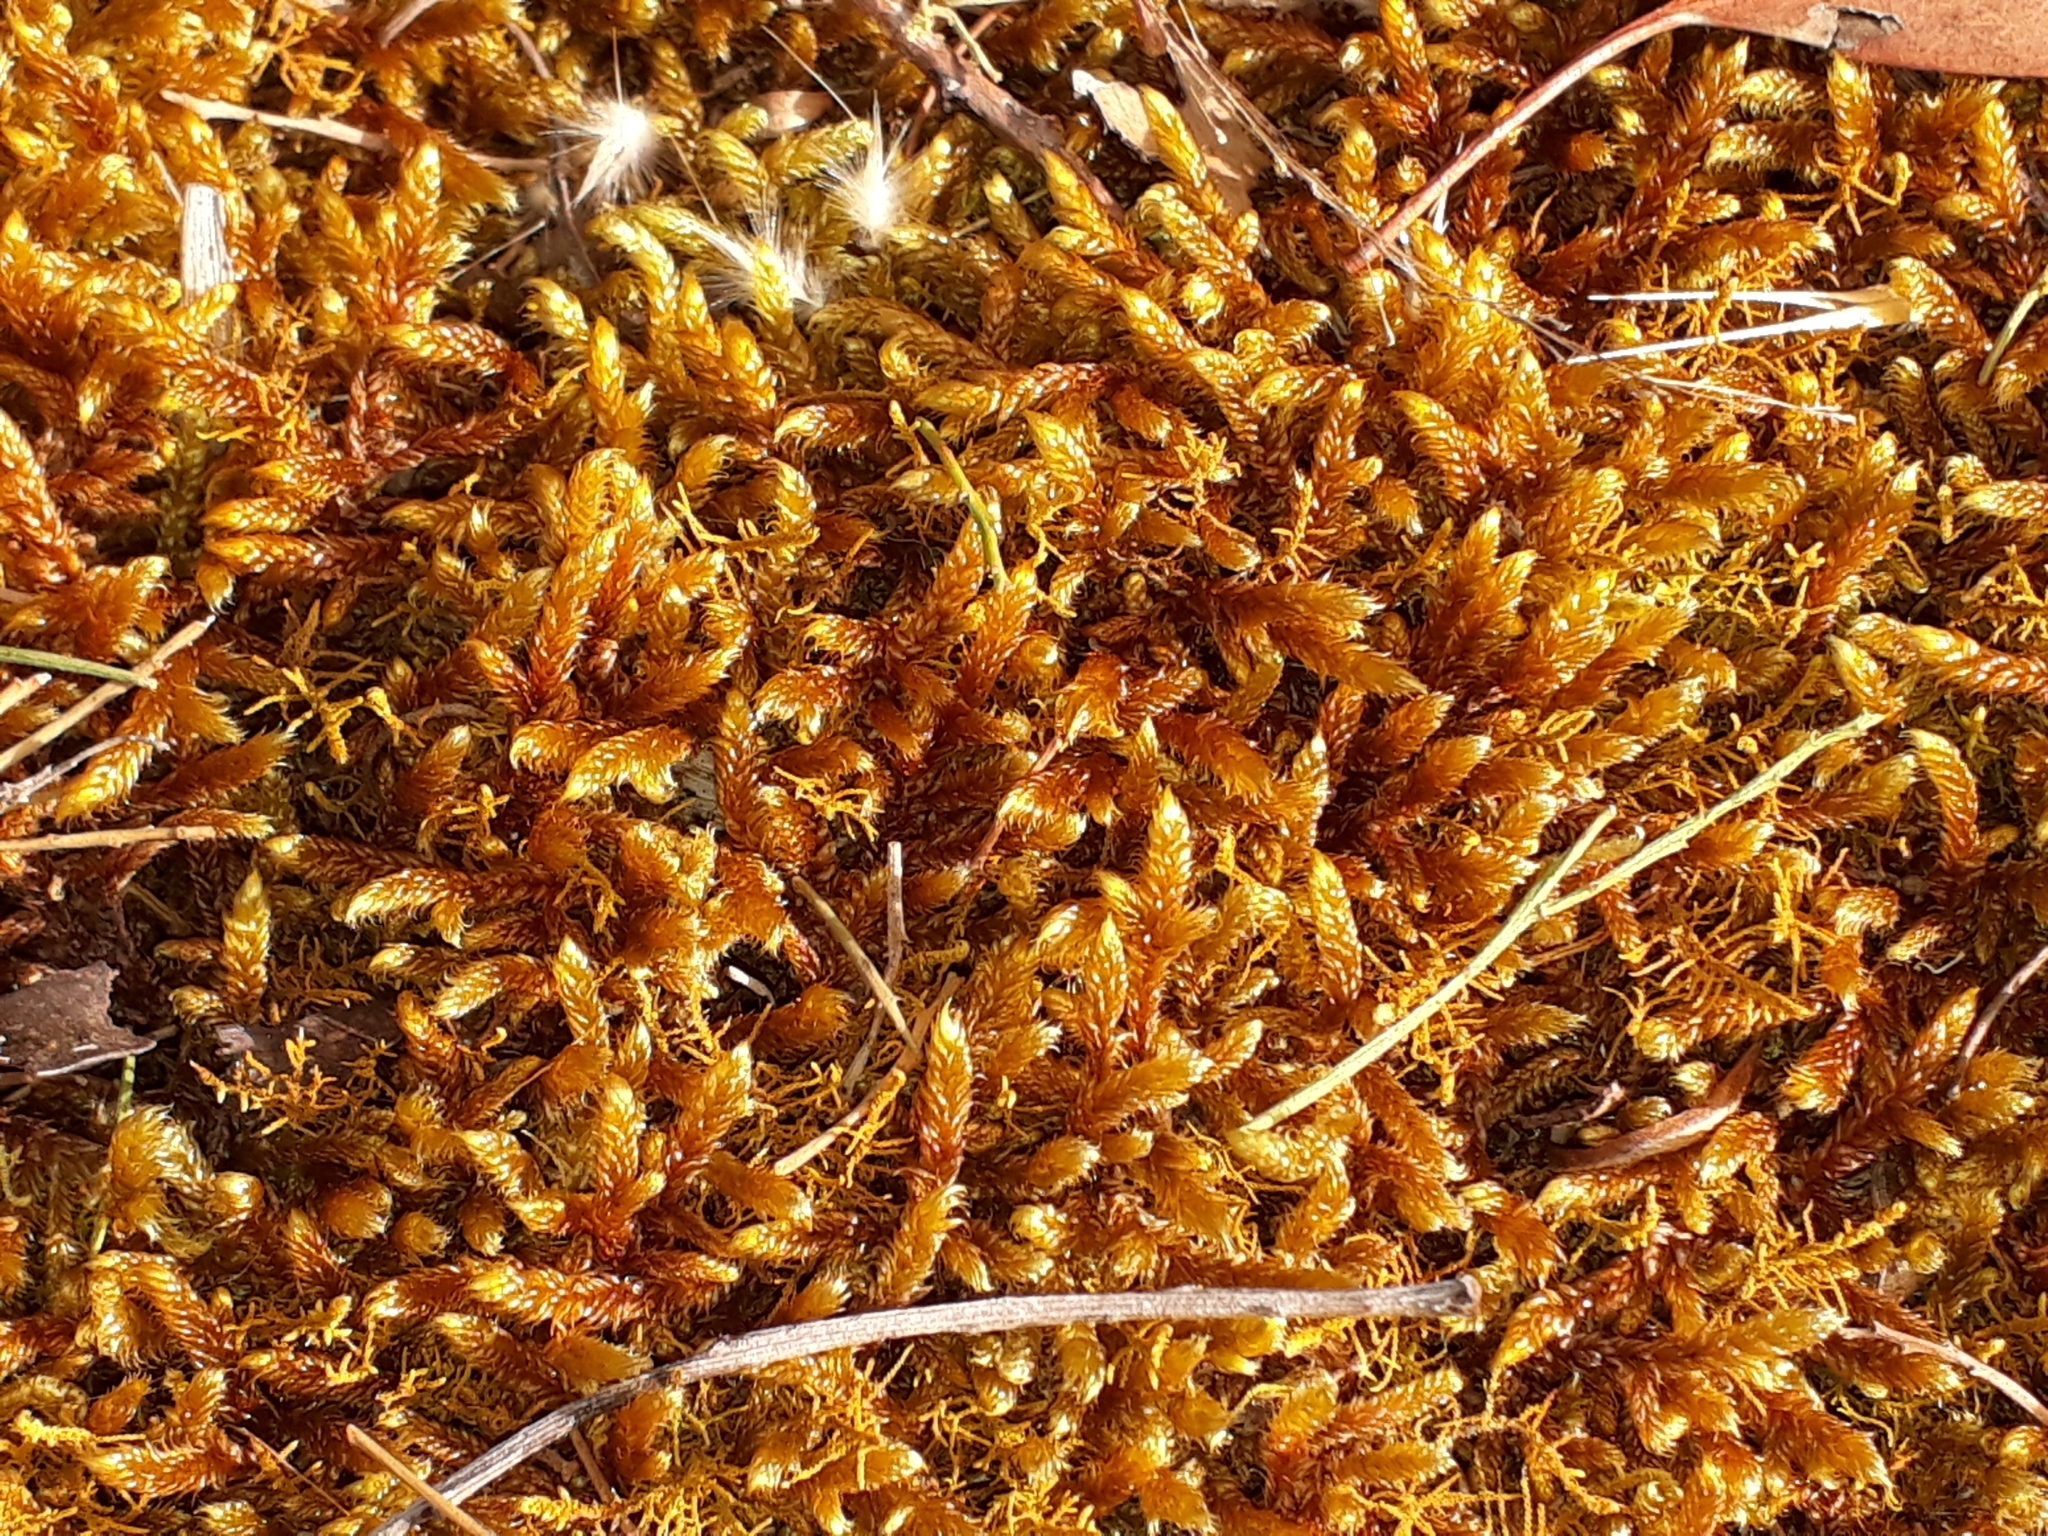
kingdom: Plantae
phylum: Bryophyta
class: Bryopsida
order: Hypnales
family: Hypnaceae
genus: Hypnum
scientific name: Hypnum cupressiforme
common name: Cypress-leaved plait-moss
